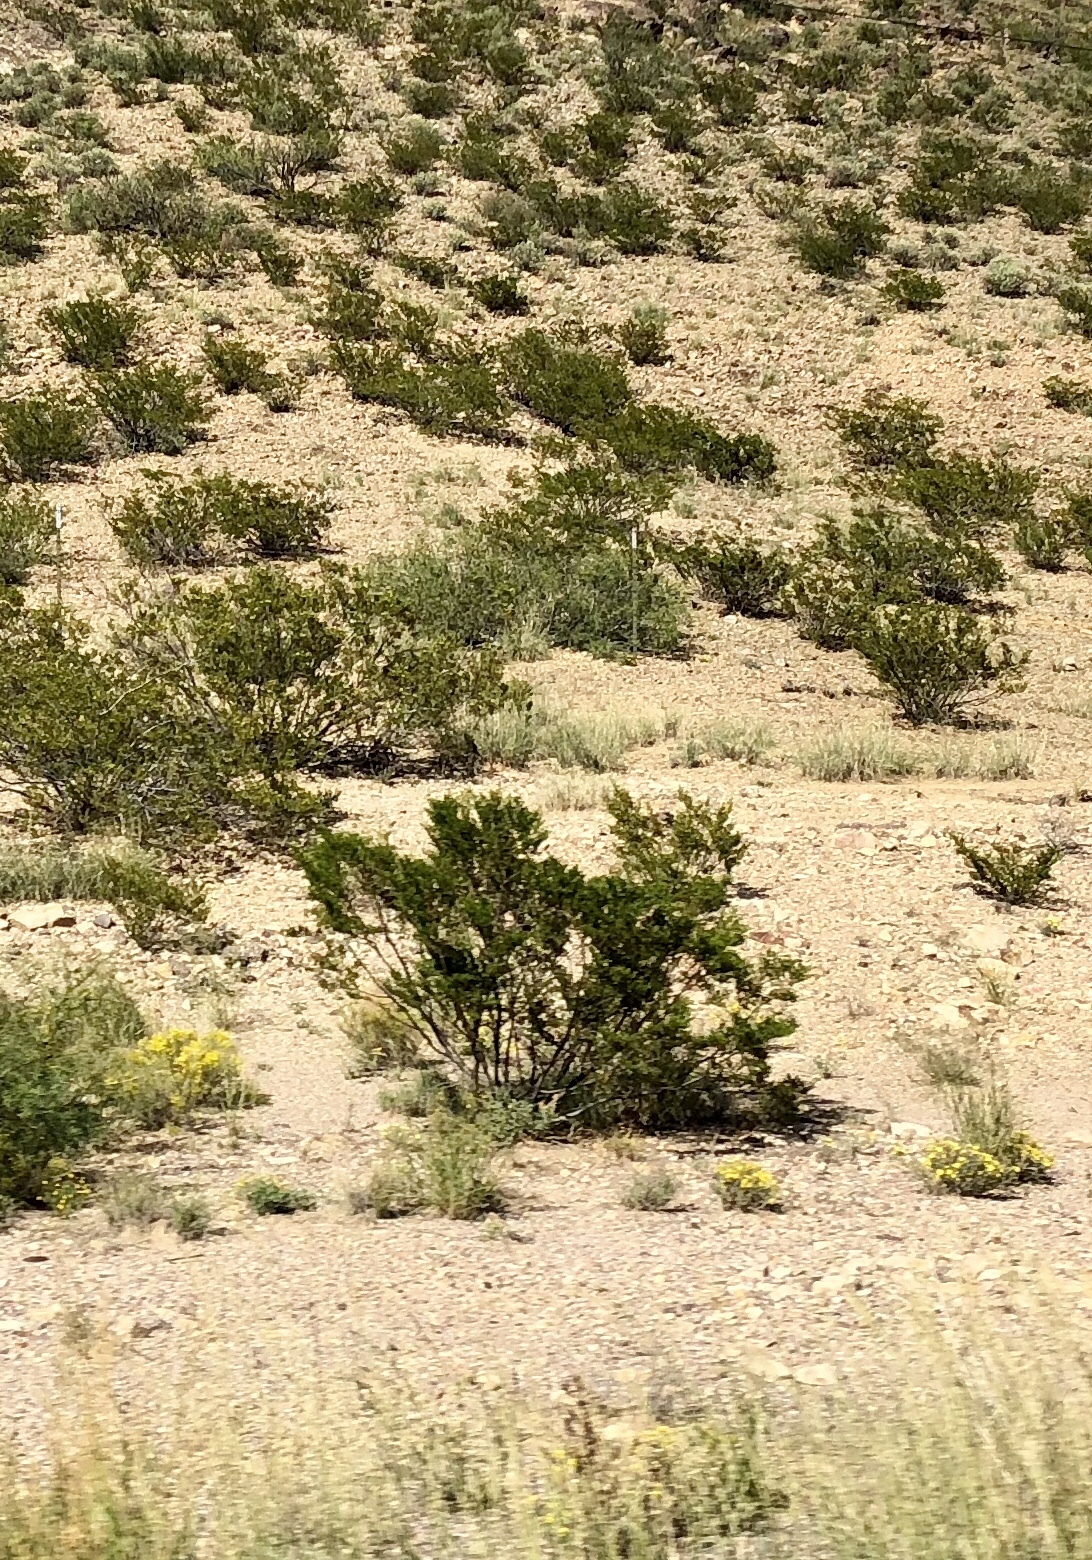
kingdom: Plantae
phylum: Tracheophyta
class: Magnoliopsida
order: Zygophyllales
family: Zygophyllaceae
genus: Larrea
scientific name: Larrea tridentata
